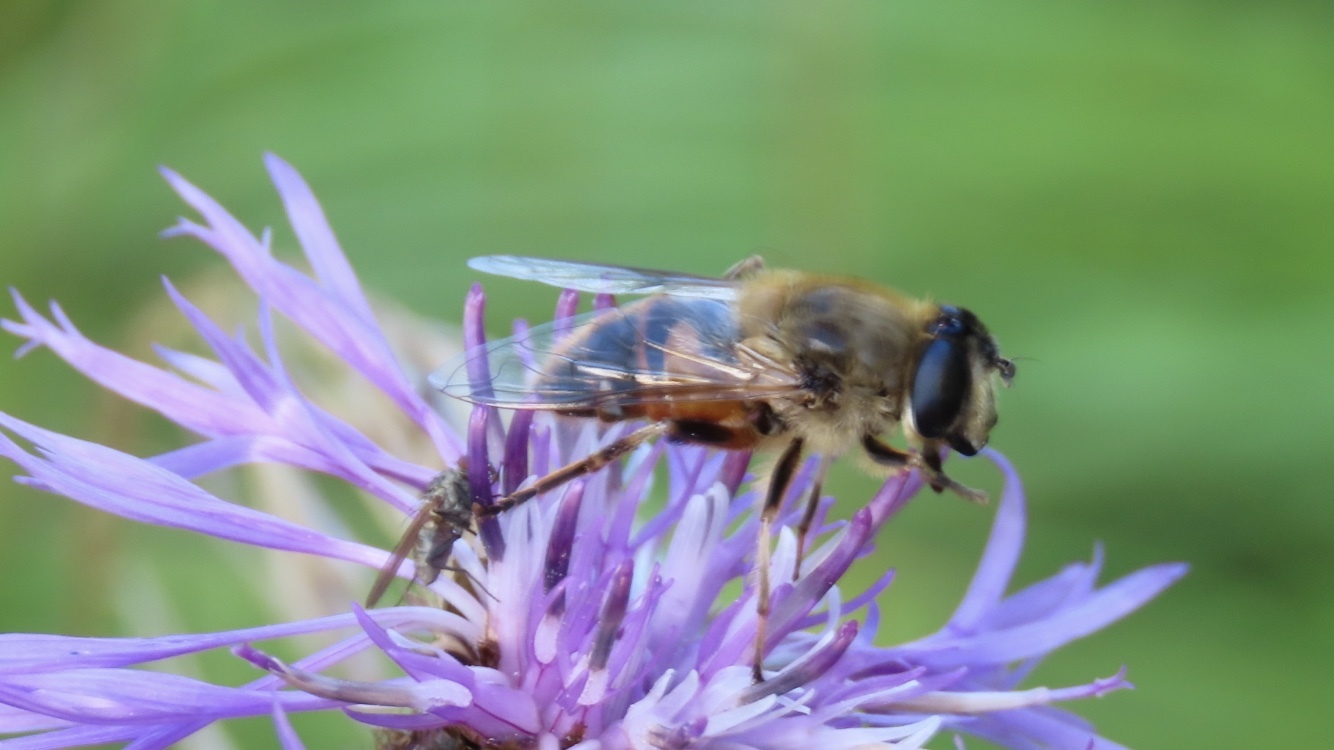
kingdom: Animalia
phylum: Arthropoda
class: Insecta
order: Diptera
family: Syrphidae
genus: Eristalis
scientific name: Eristalis tenax
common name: Drone fly
